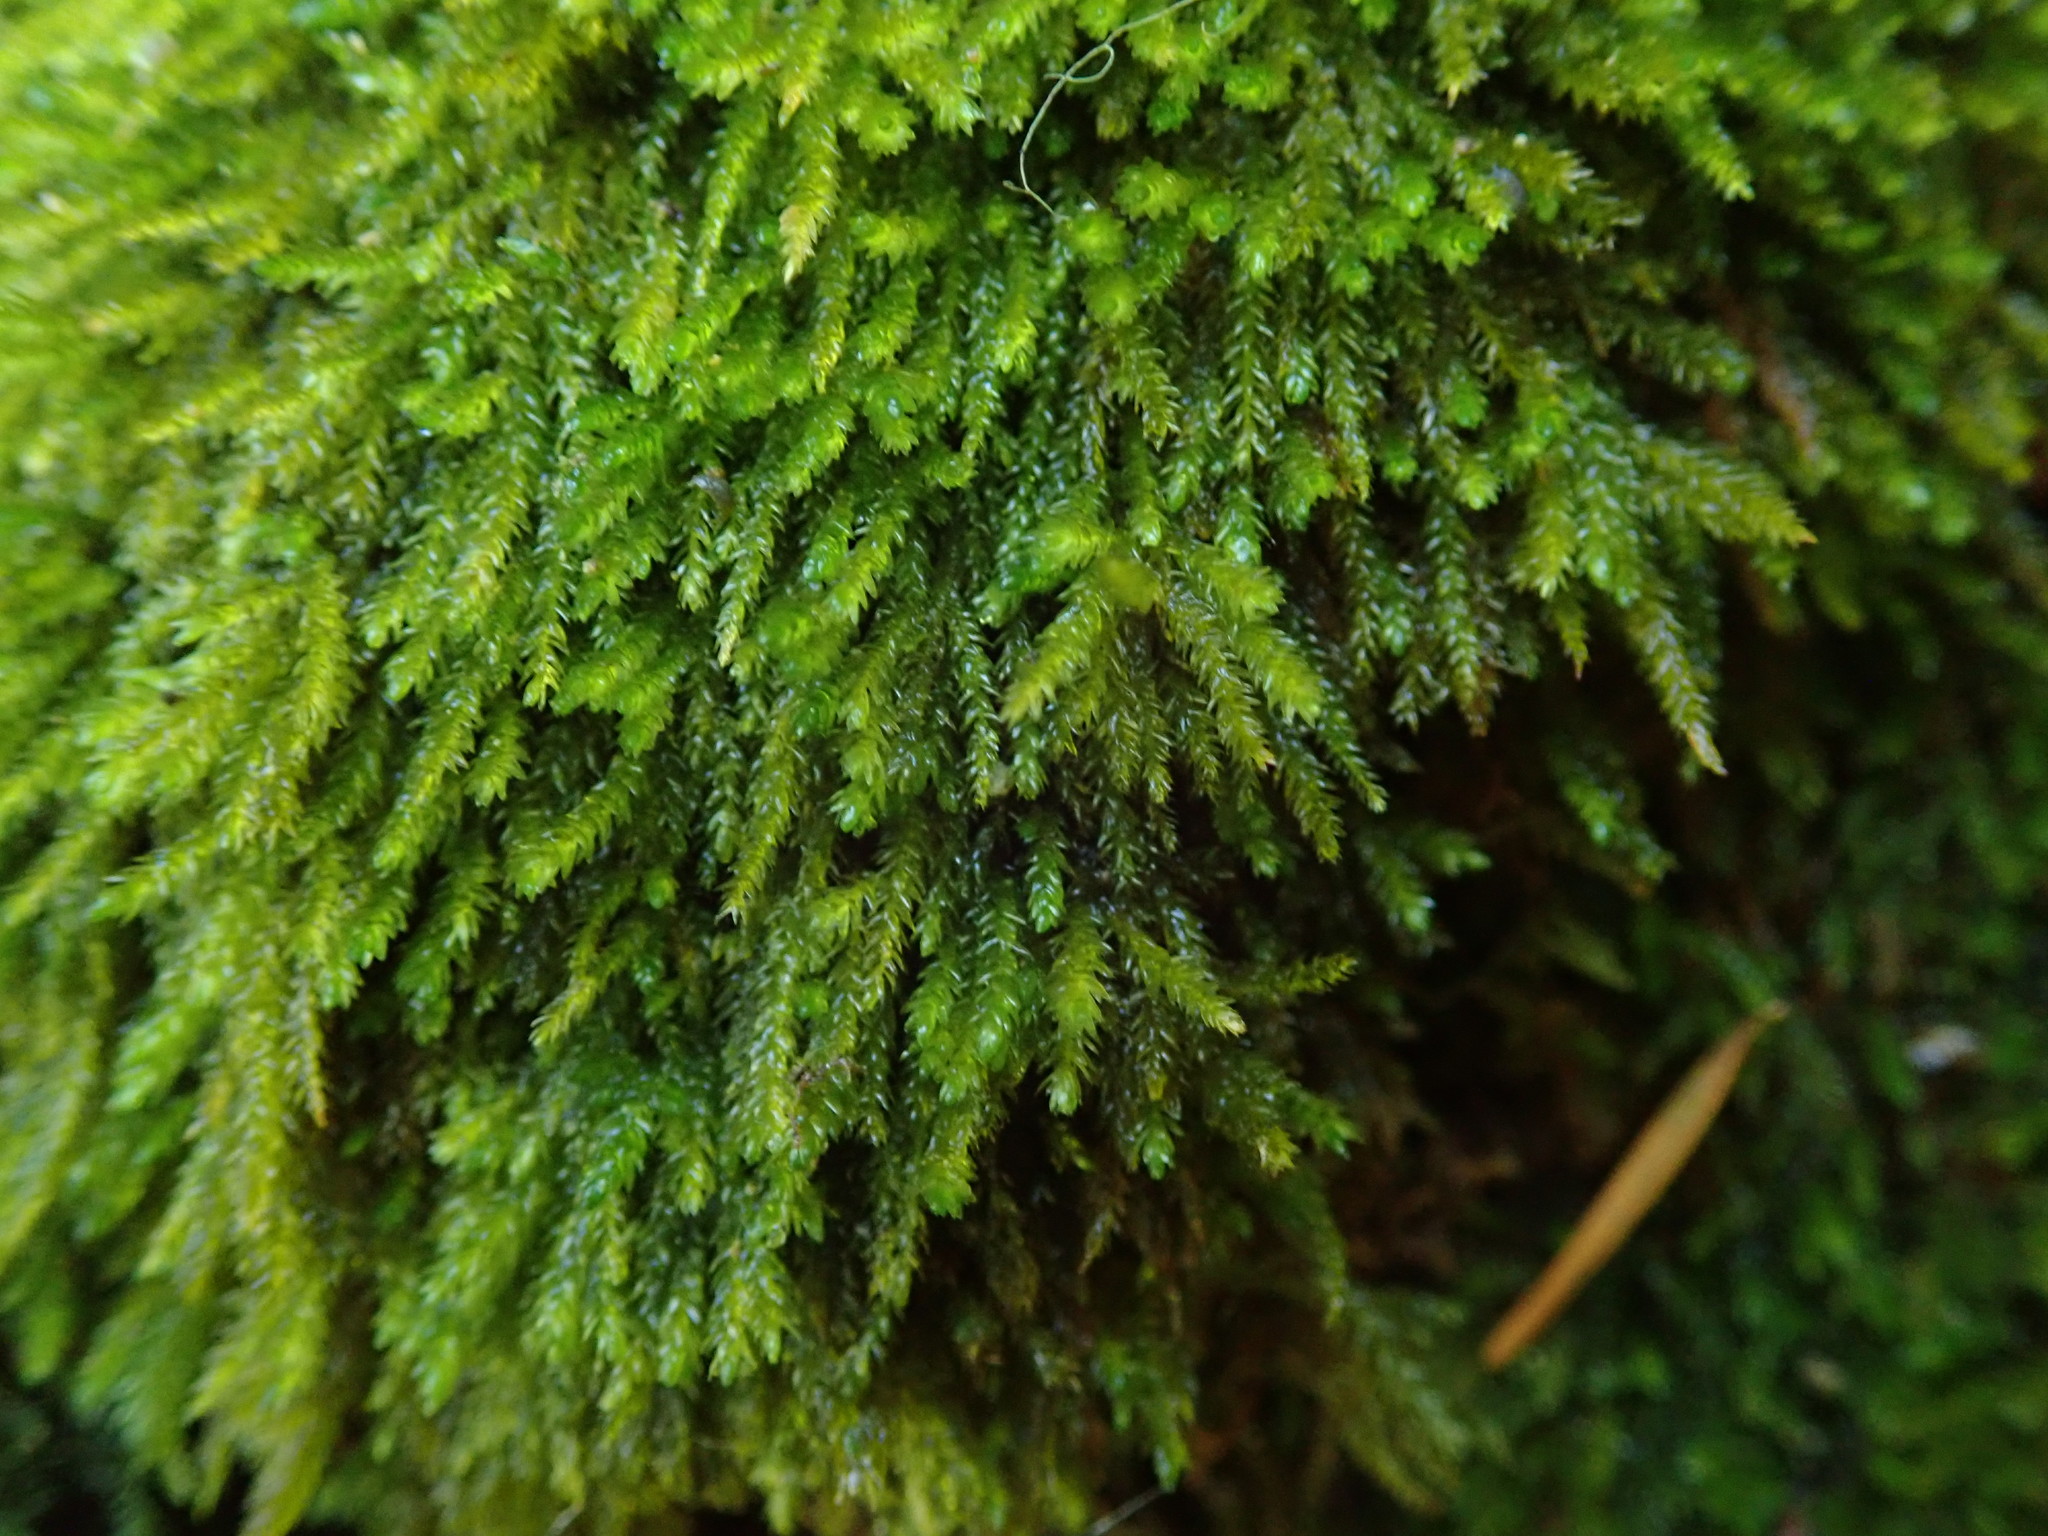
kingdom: Plantae
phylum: Bryophyta
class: Bryopsida
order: Hypnales
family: Brachytheciaceae
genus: Eurhynchiastrum
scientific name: Eurhynchiastrum pulchellum
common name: Elegant beaked moss
